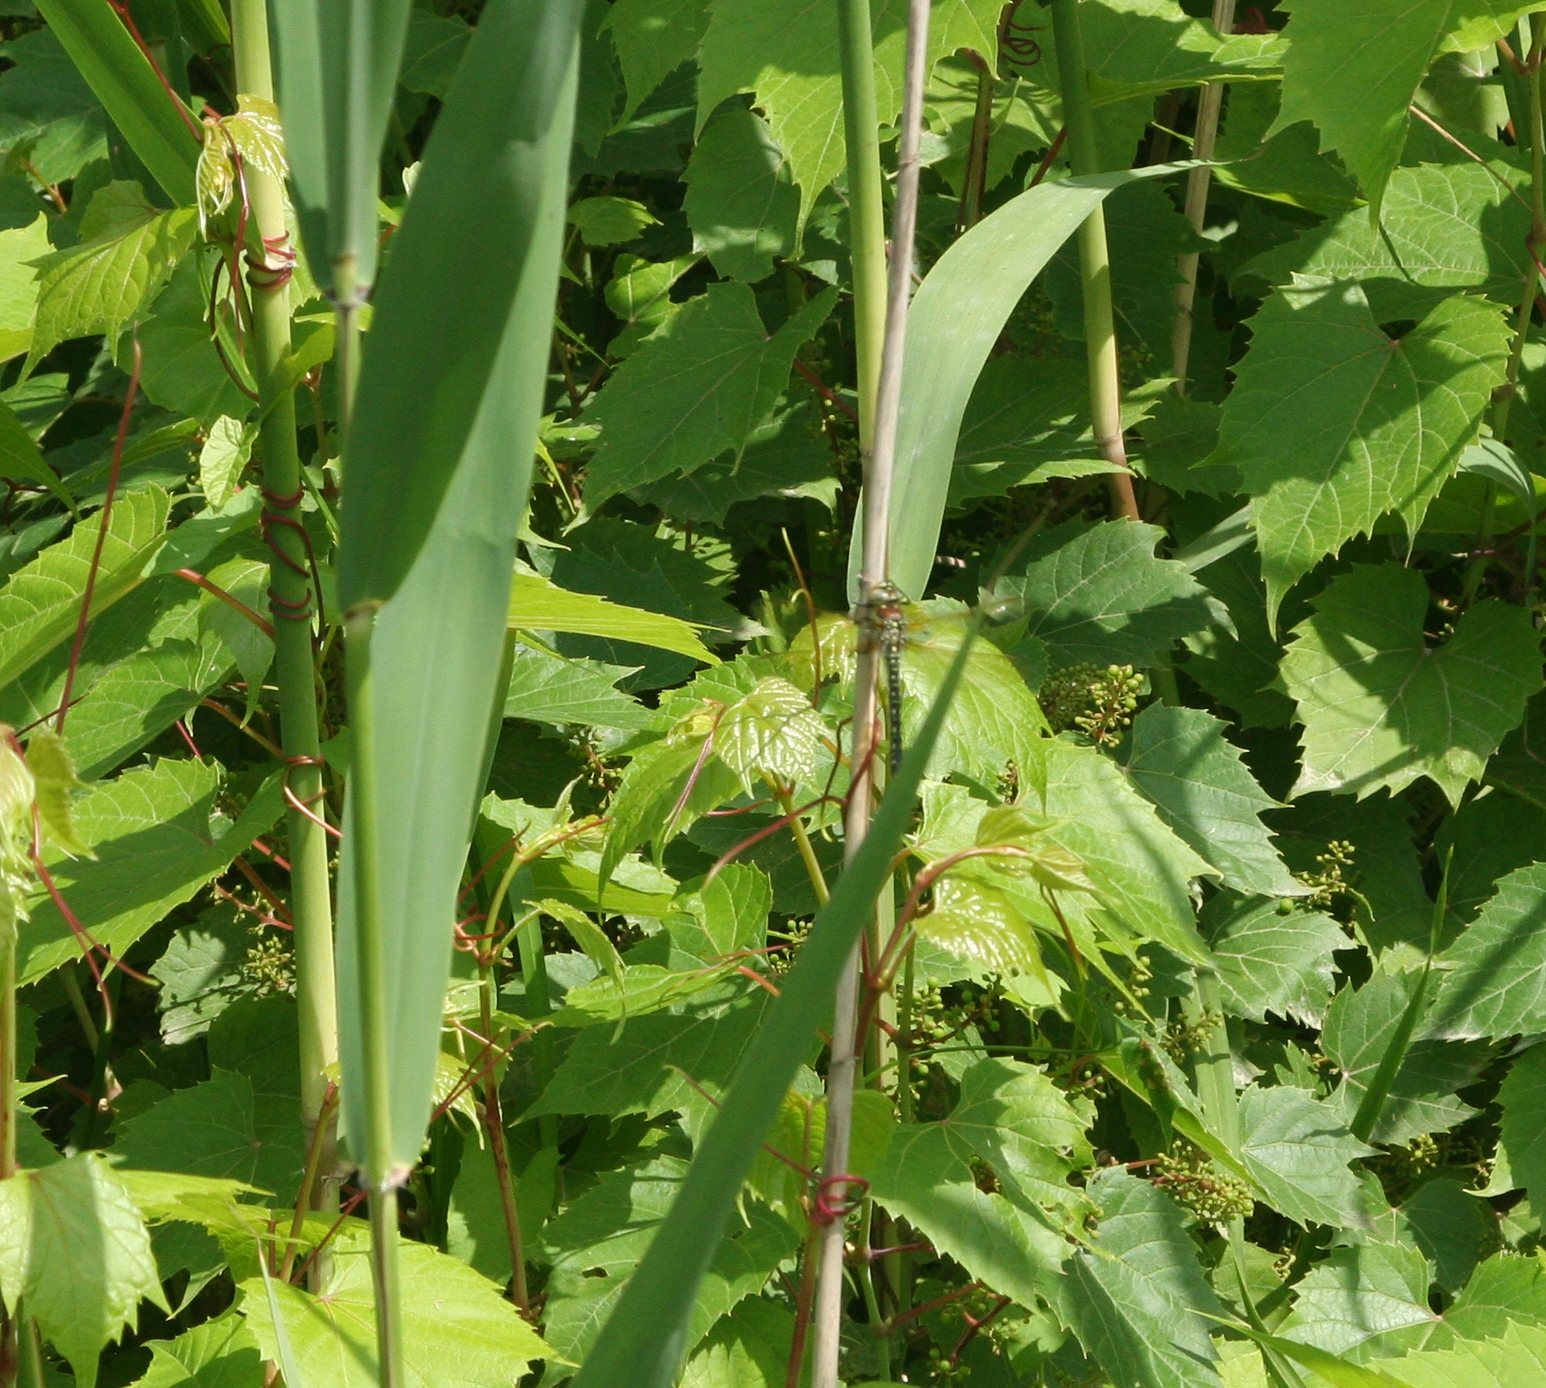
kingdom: Animalia
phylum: Arthropoda
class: Insecta
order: Odonata
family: Aeshnidae
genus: Brachytron
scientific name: Brachytron pratense
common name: Hairy hawker
